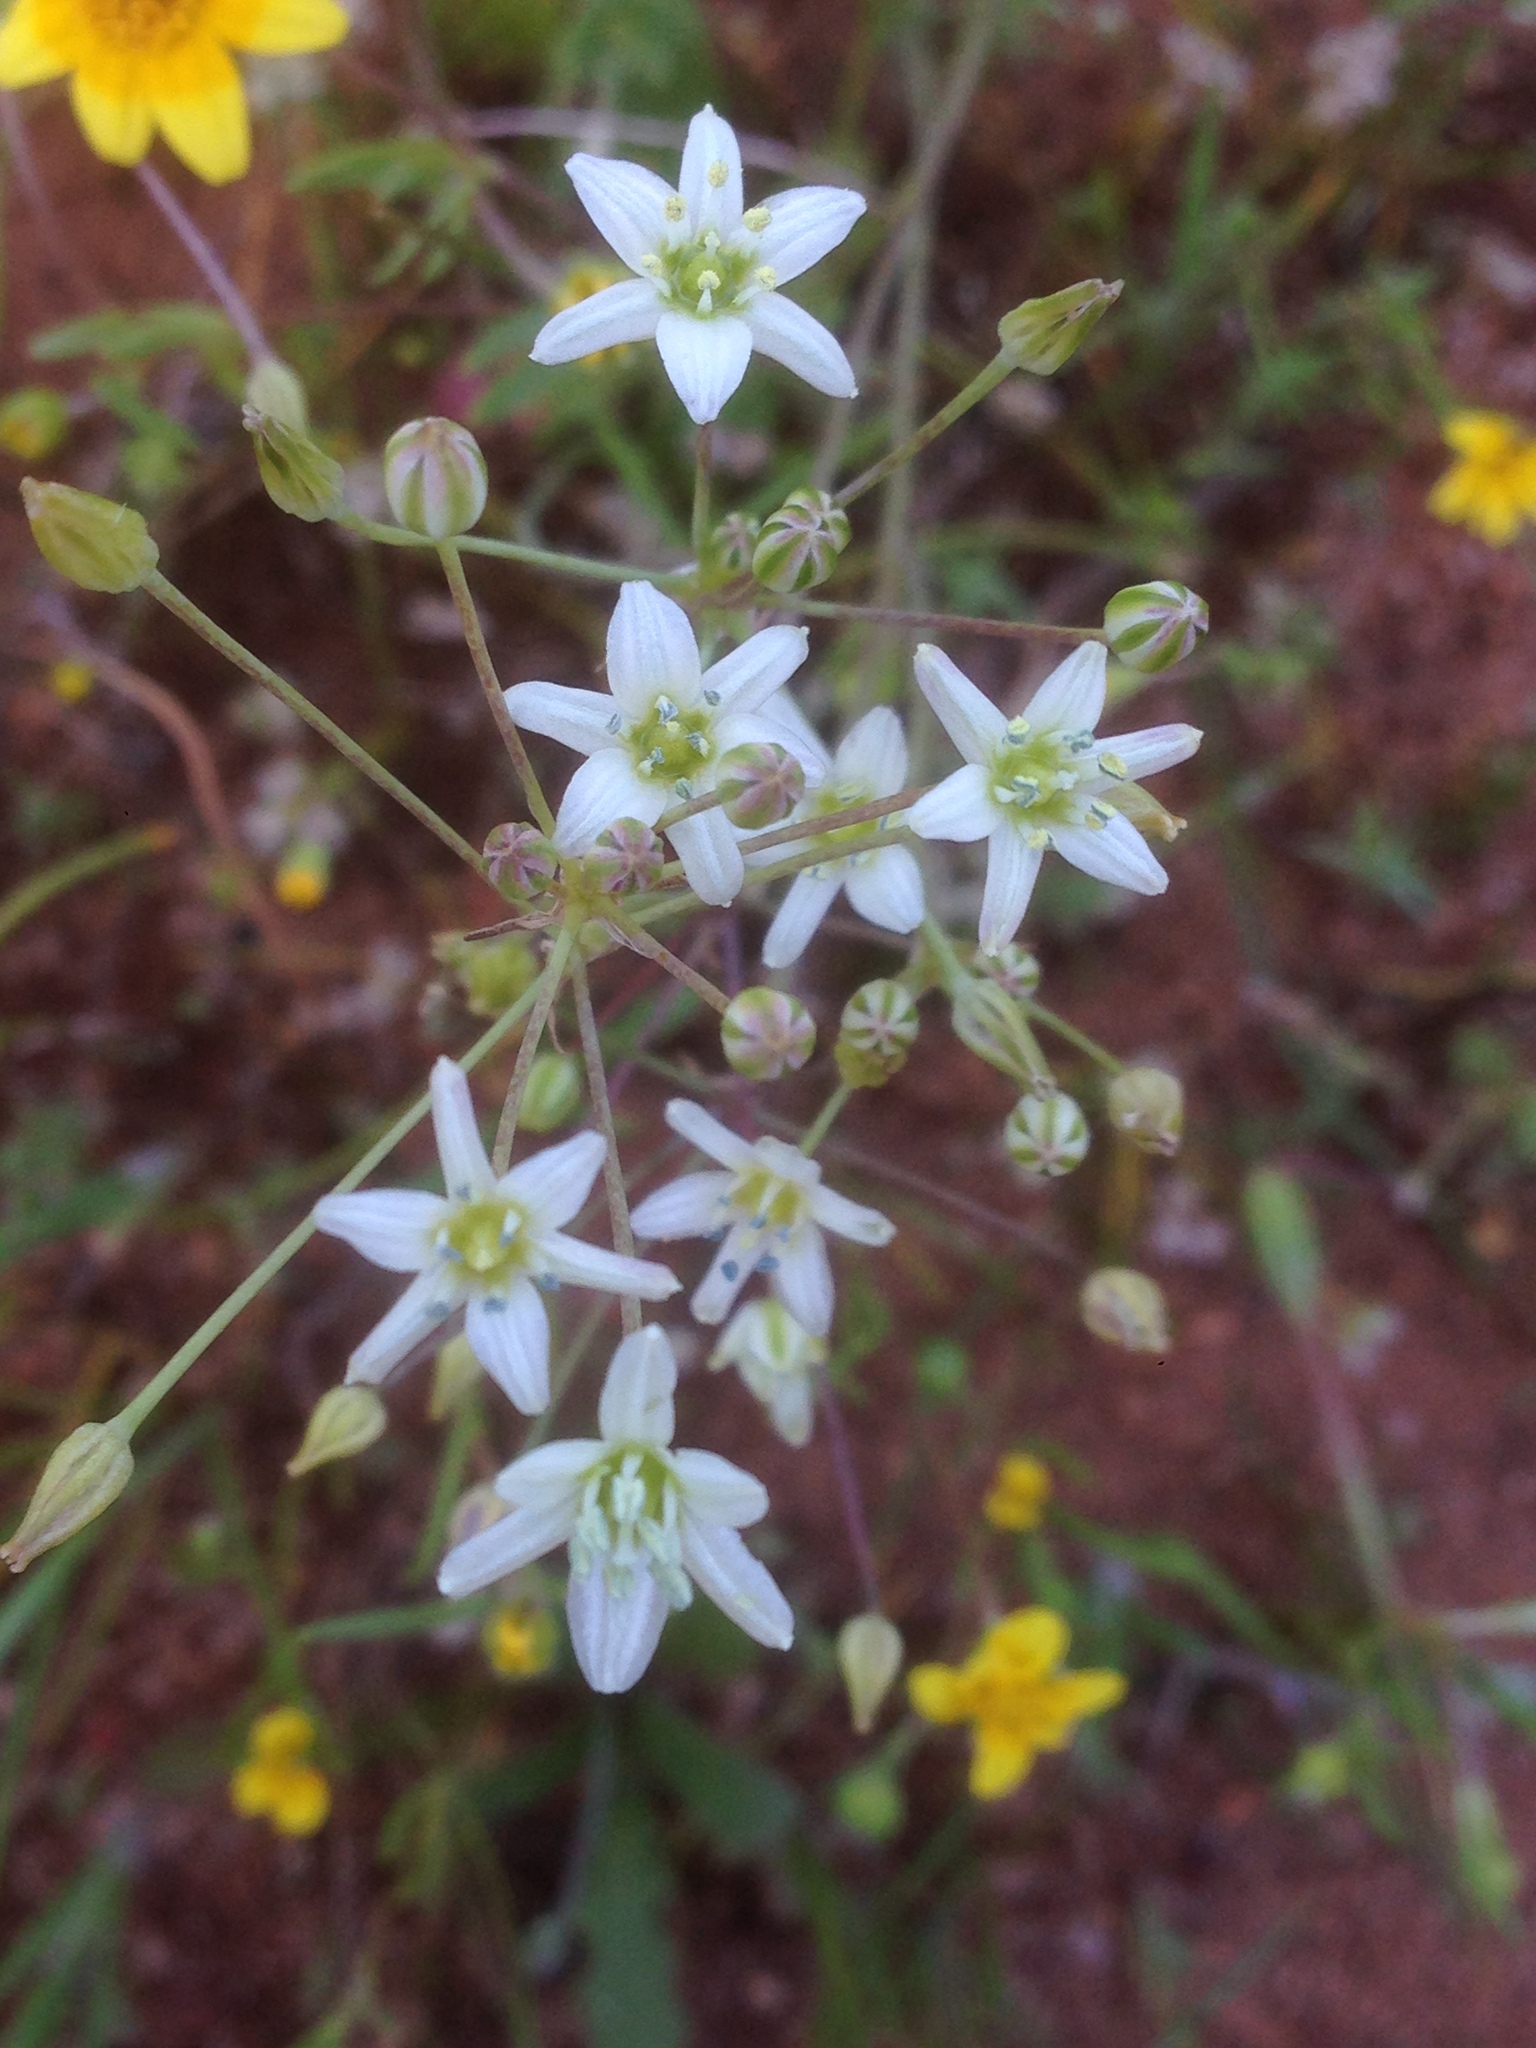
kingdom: Plantae
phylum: Tracheophyta
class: Liliopsida
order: Asparagales
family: Asparagaceae
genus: Muilla
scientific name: Muilla maritima
